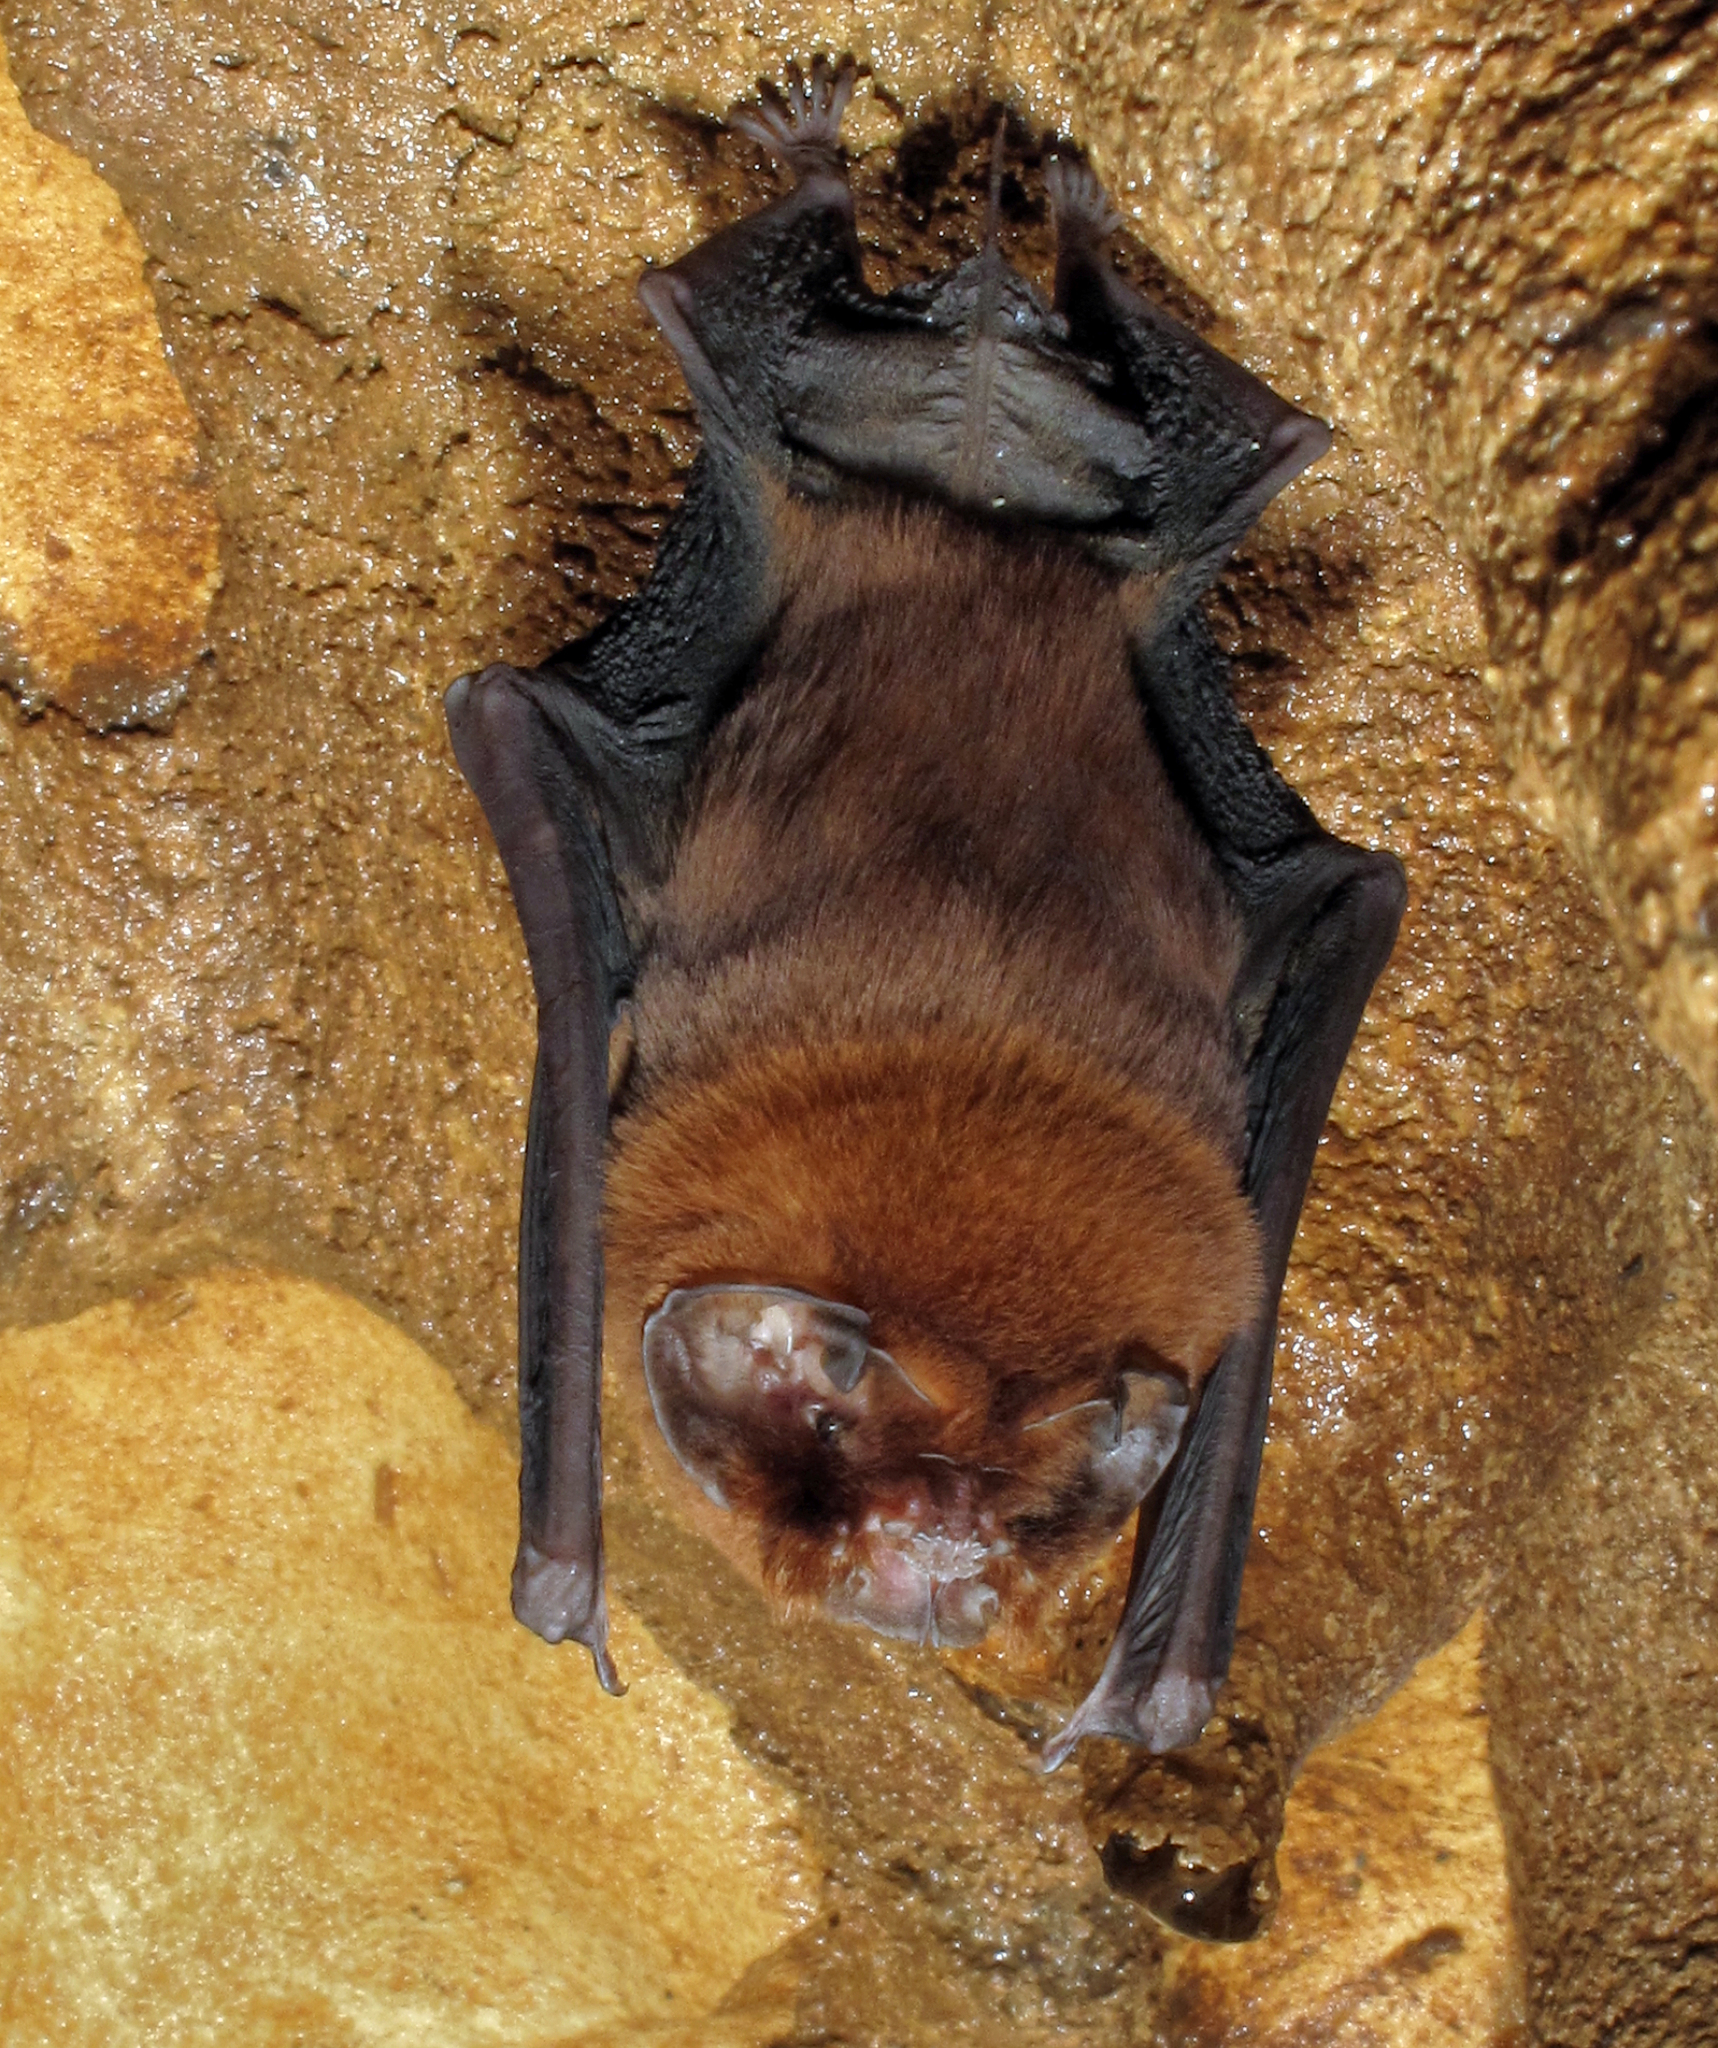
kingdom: Animalia
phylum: Chordata
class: Mammalia
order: Chiroptera
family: Mormoopidae
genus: Mormoops
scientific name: Mormoops blainvillei
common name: Antillean ghost-faced bat
